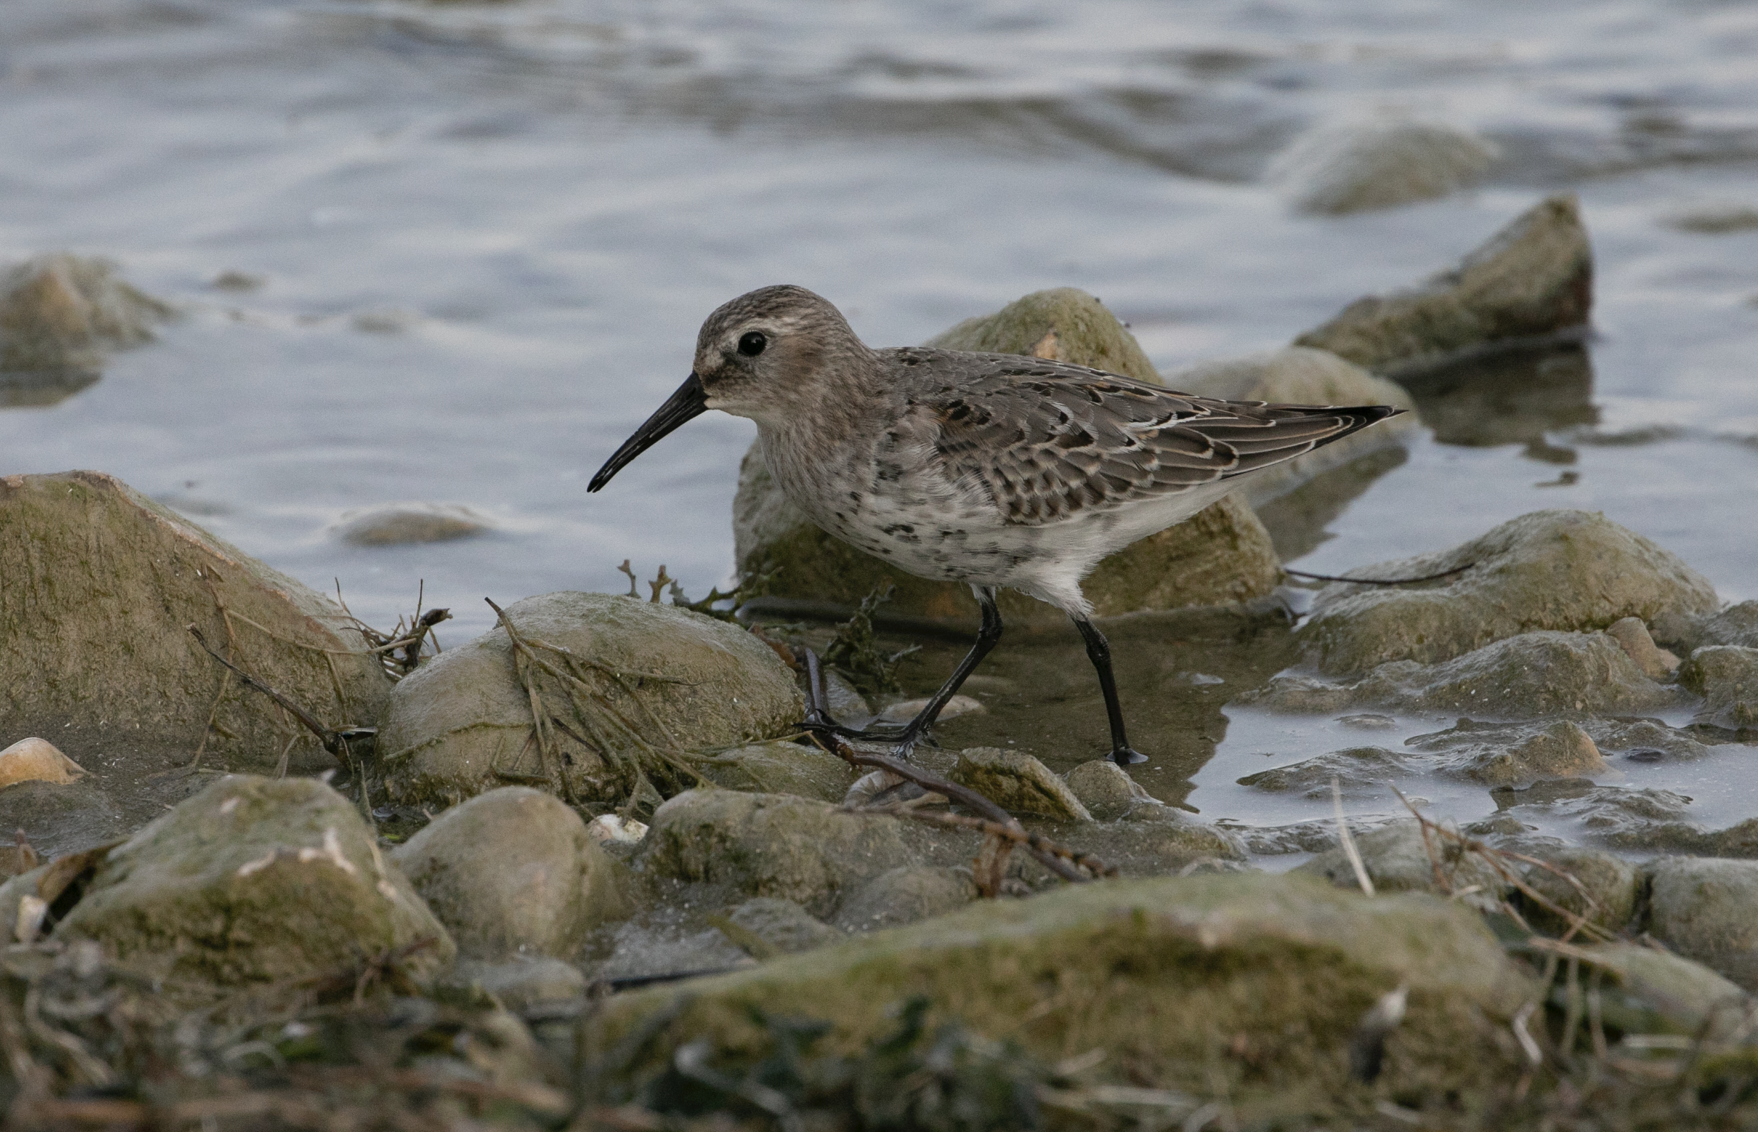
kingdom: Animalia
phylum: Chordata
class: Aves
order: Charadriiformes
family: Scolopacidae
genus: Calidris
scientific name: Calidris alpina
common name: Dunlin
